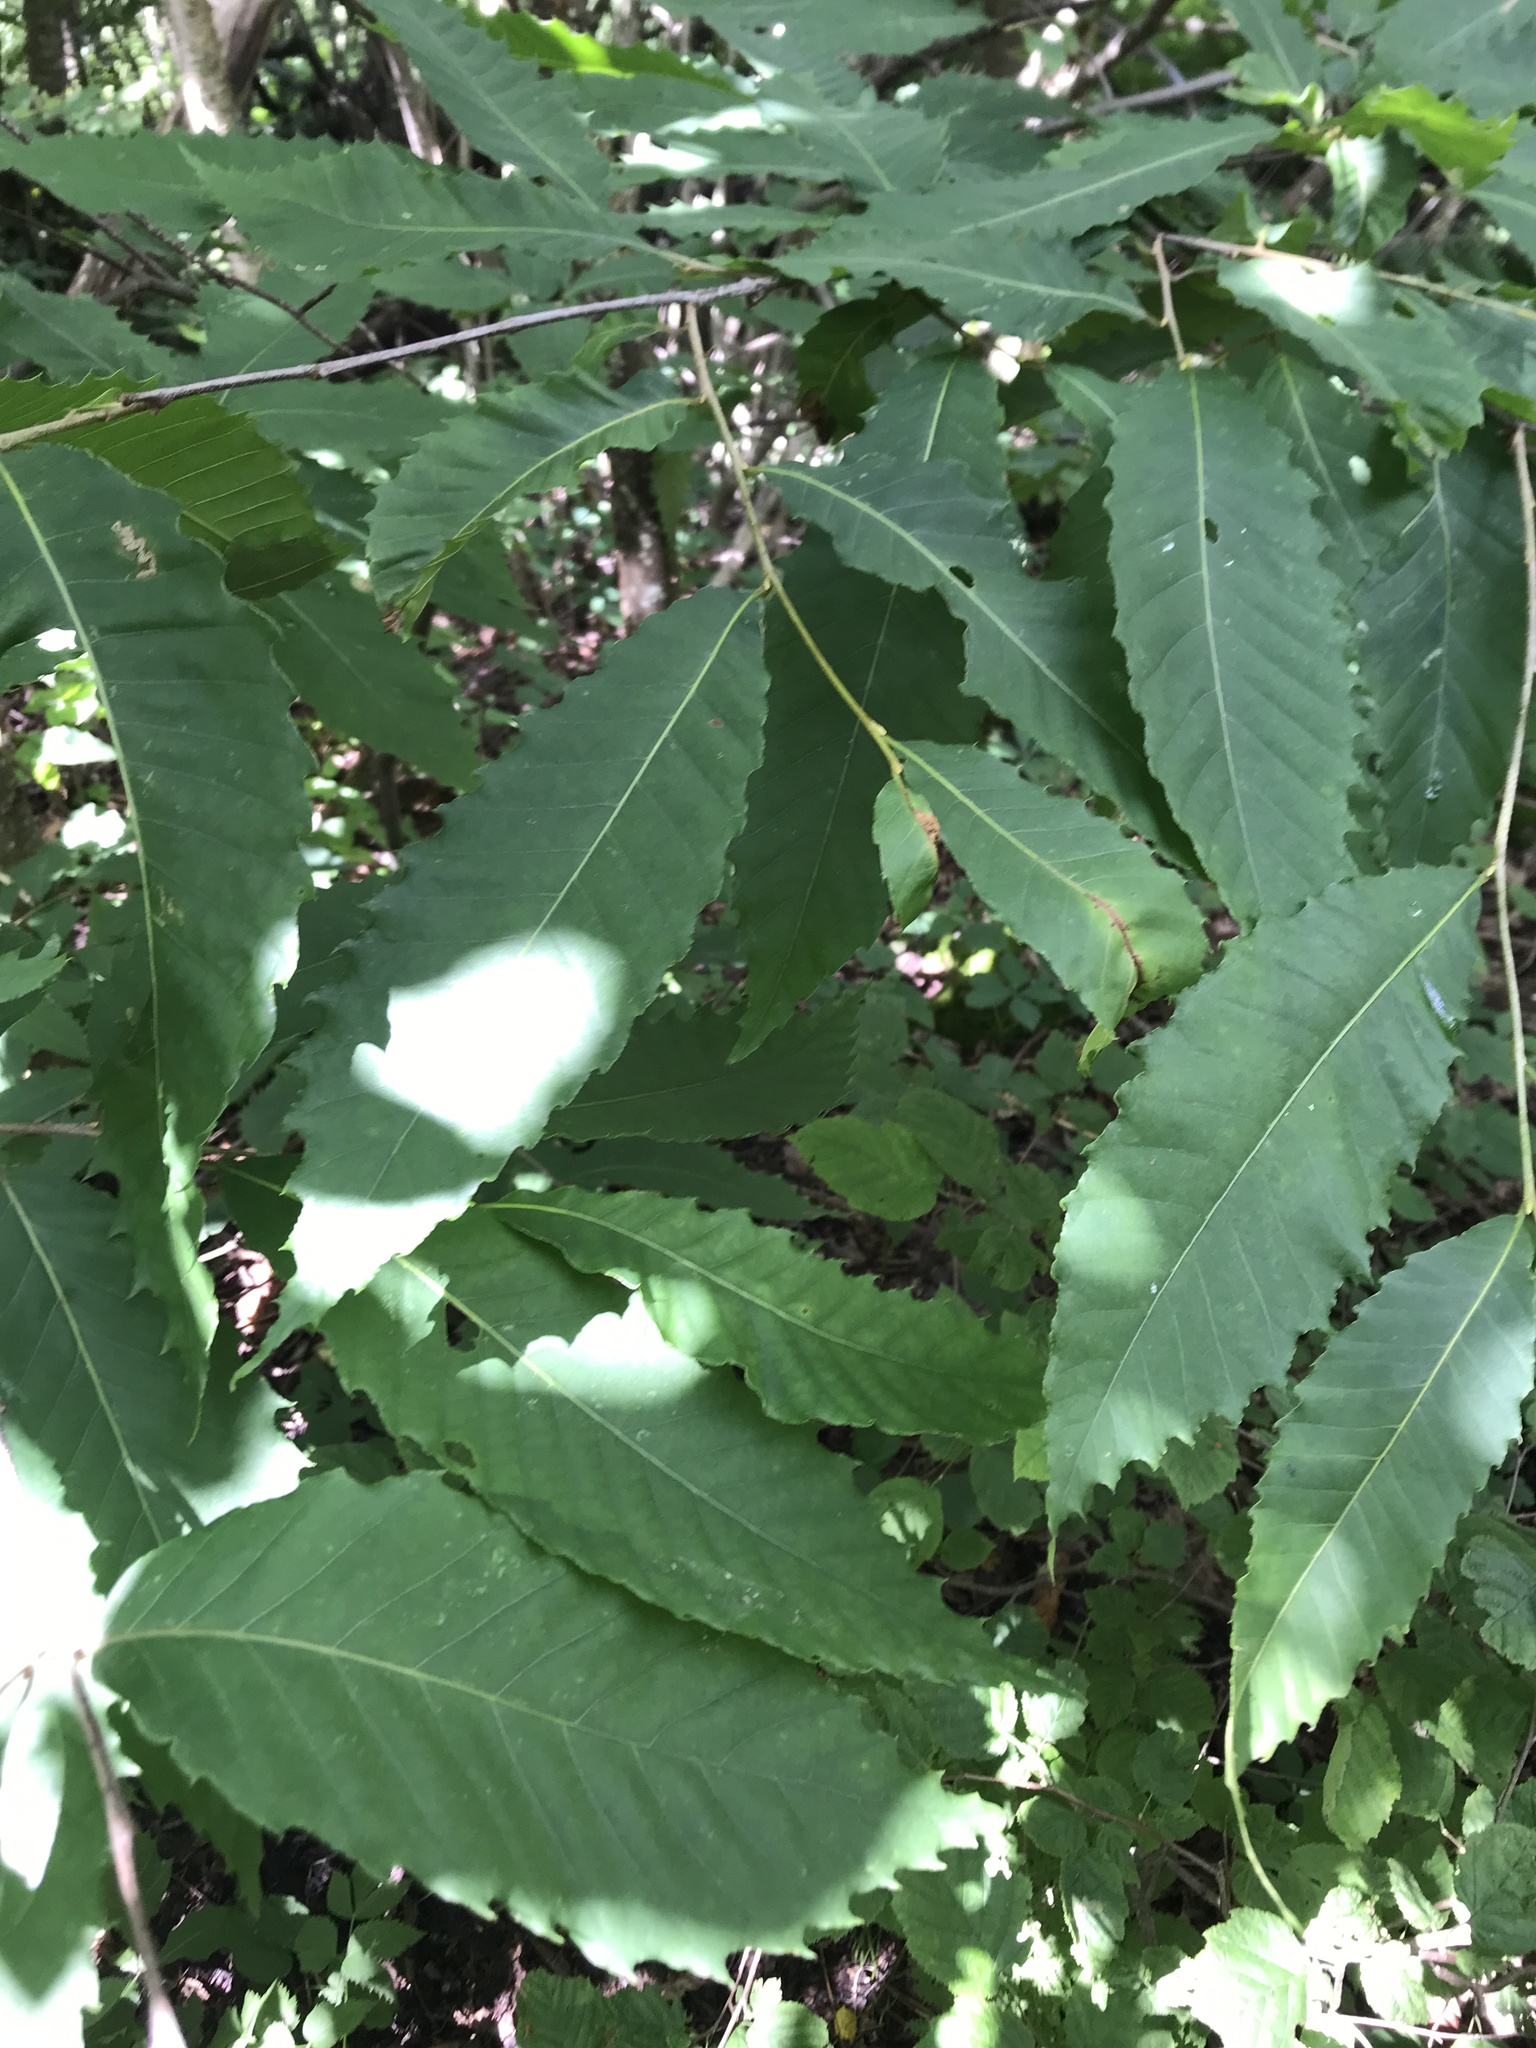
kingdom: Plantae
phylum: Tracheophyta
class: Magnoliopsida
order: Fagales
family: Fagaceae
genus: Castanea
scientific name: Castanea dentata
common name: American chestnut
